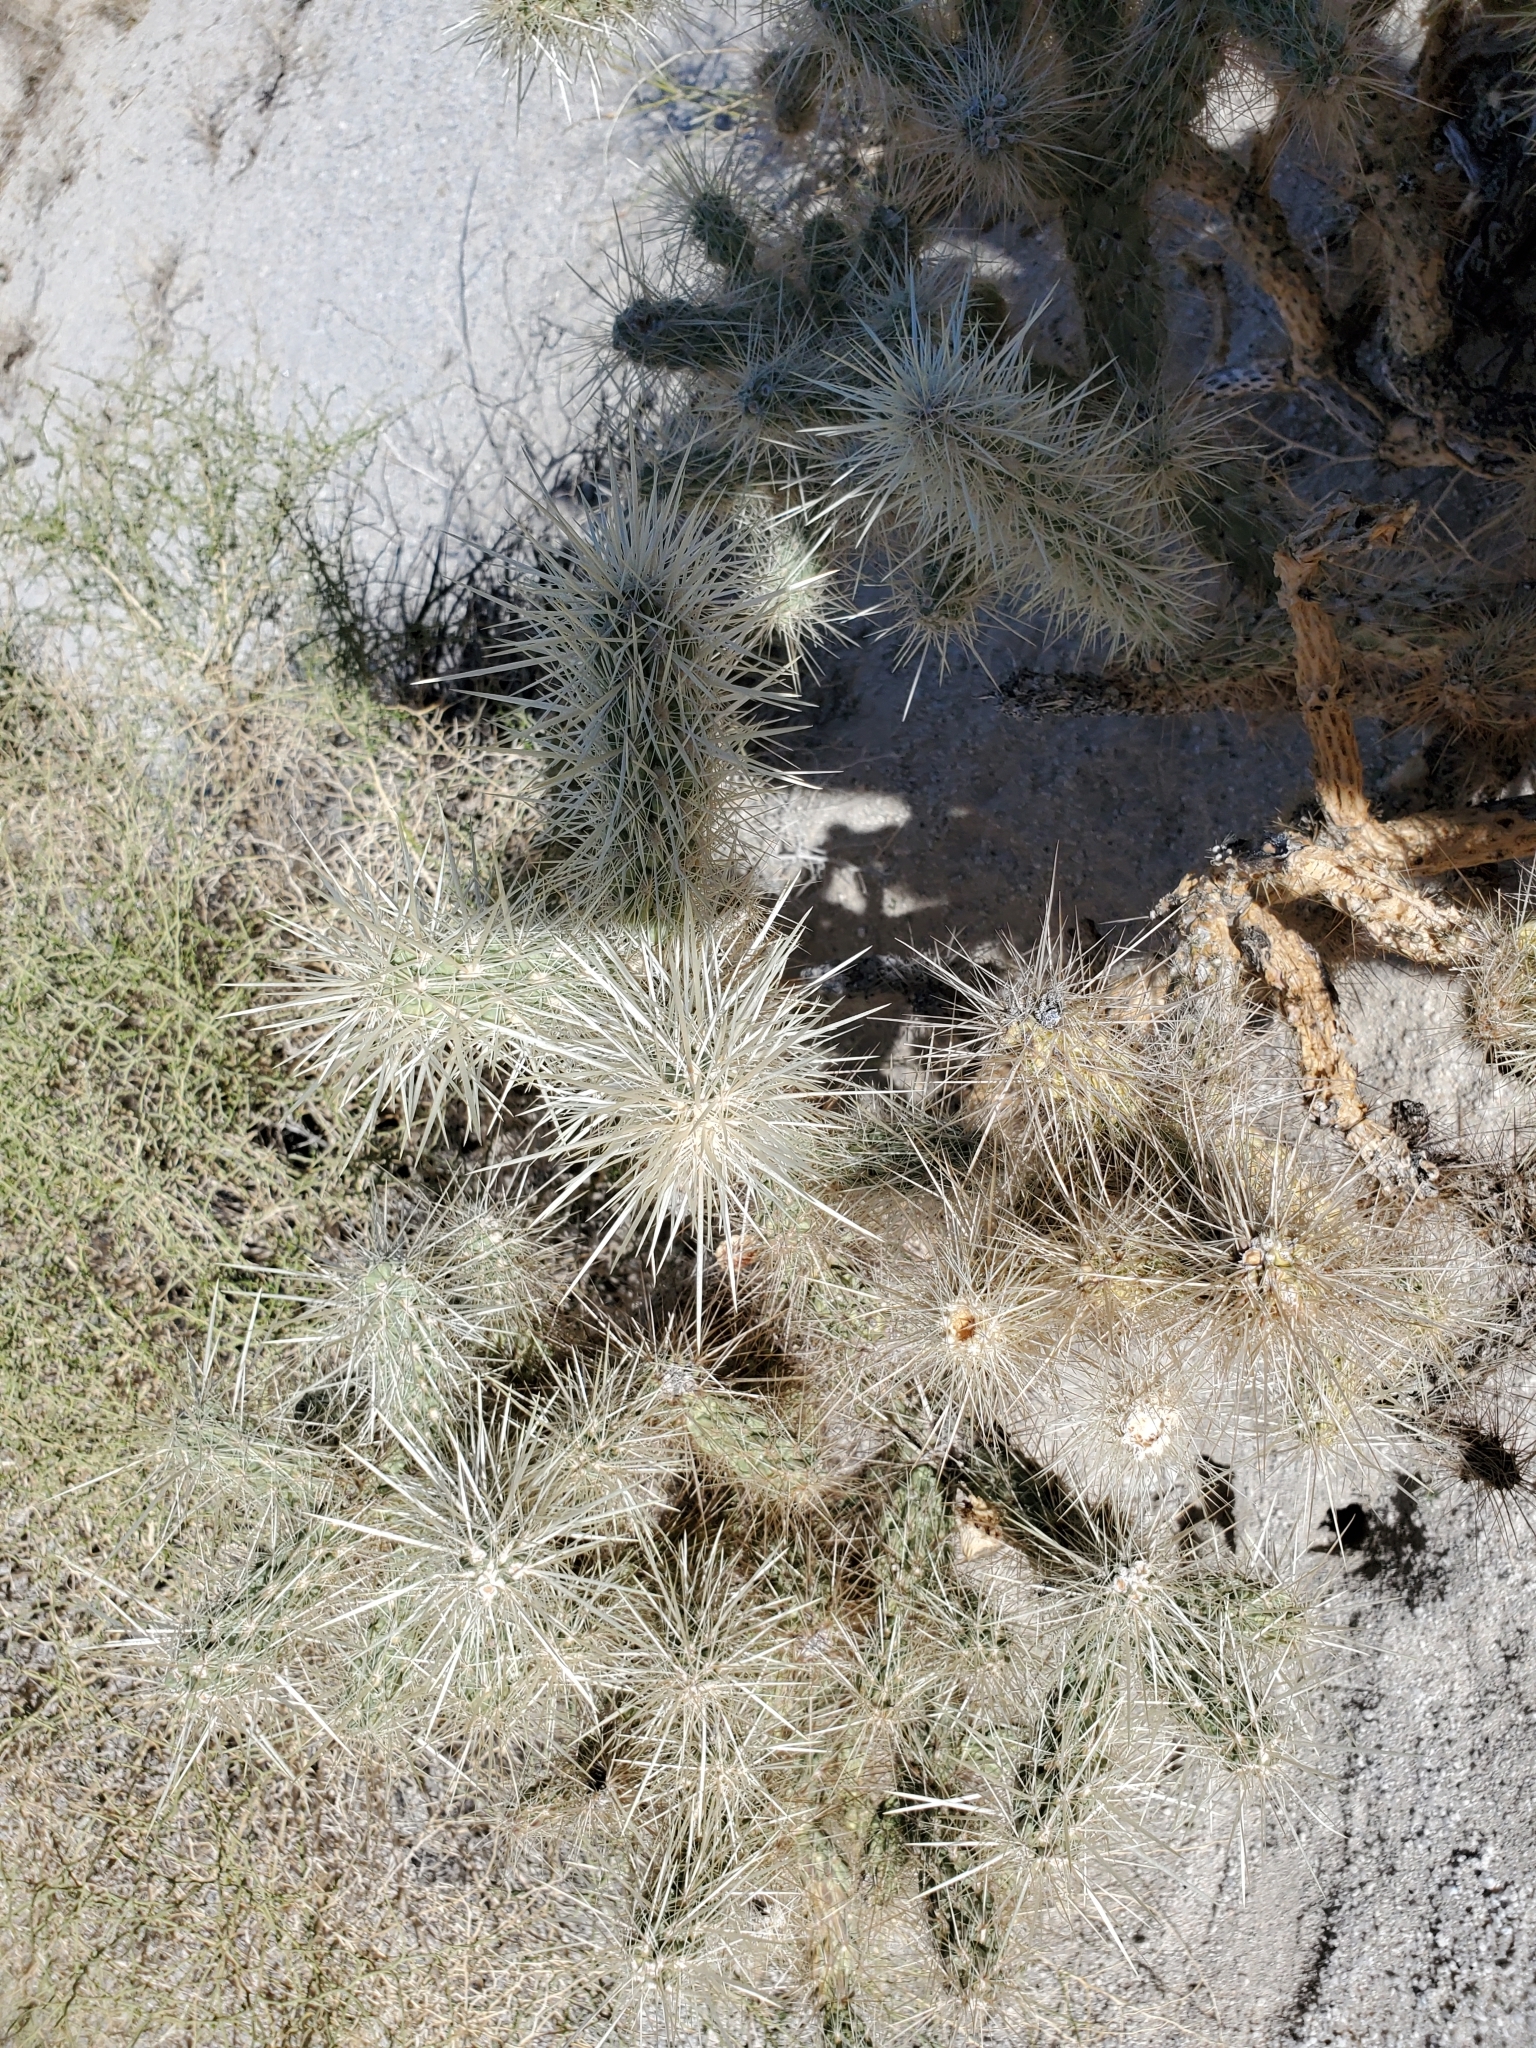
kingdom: Plantae
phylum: Tracheophyta
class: Magnoliopsida
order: Caryophyllales
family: Cactaceae
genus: Cylindropuntia
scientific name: Cylindropuntia echinocarpa
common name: Ground cholla
